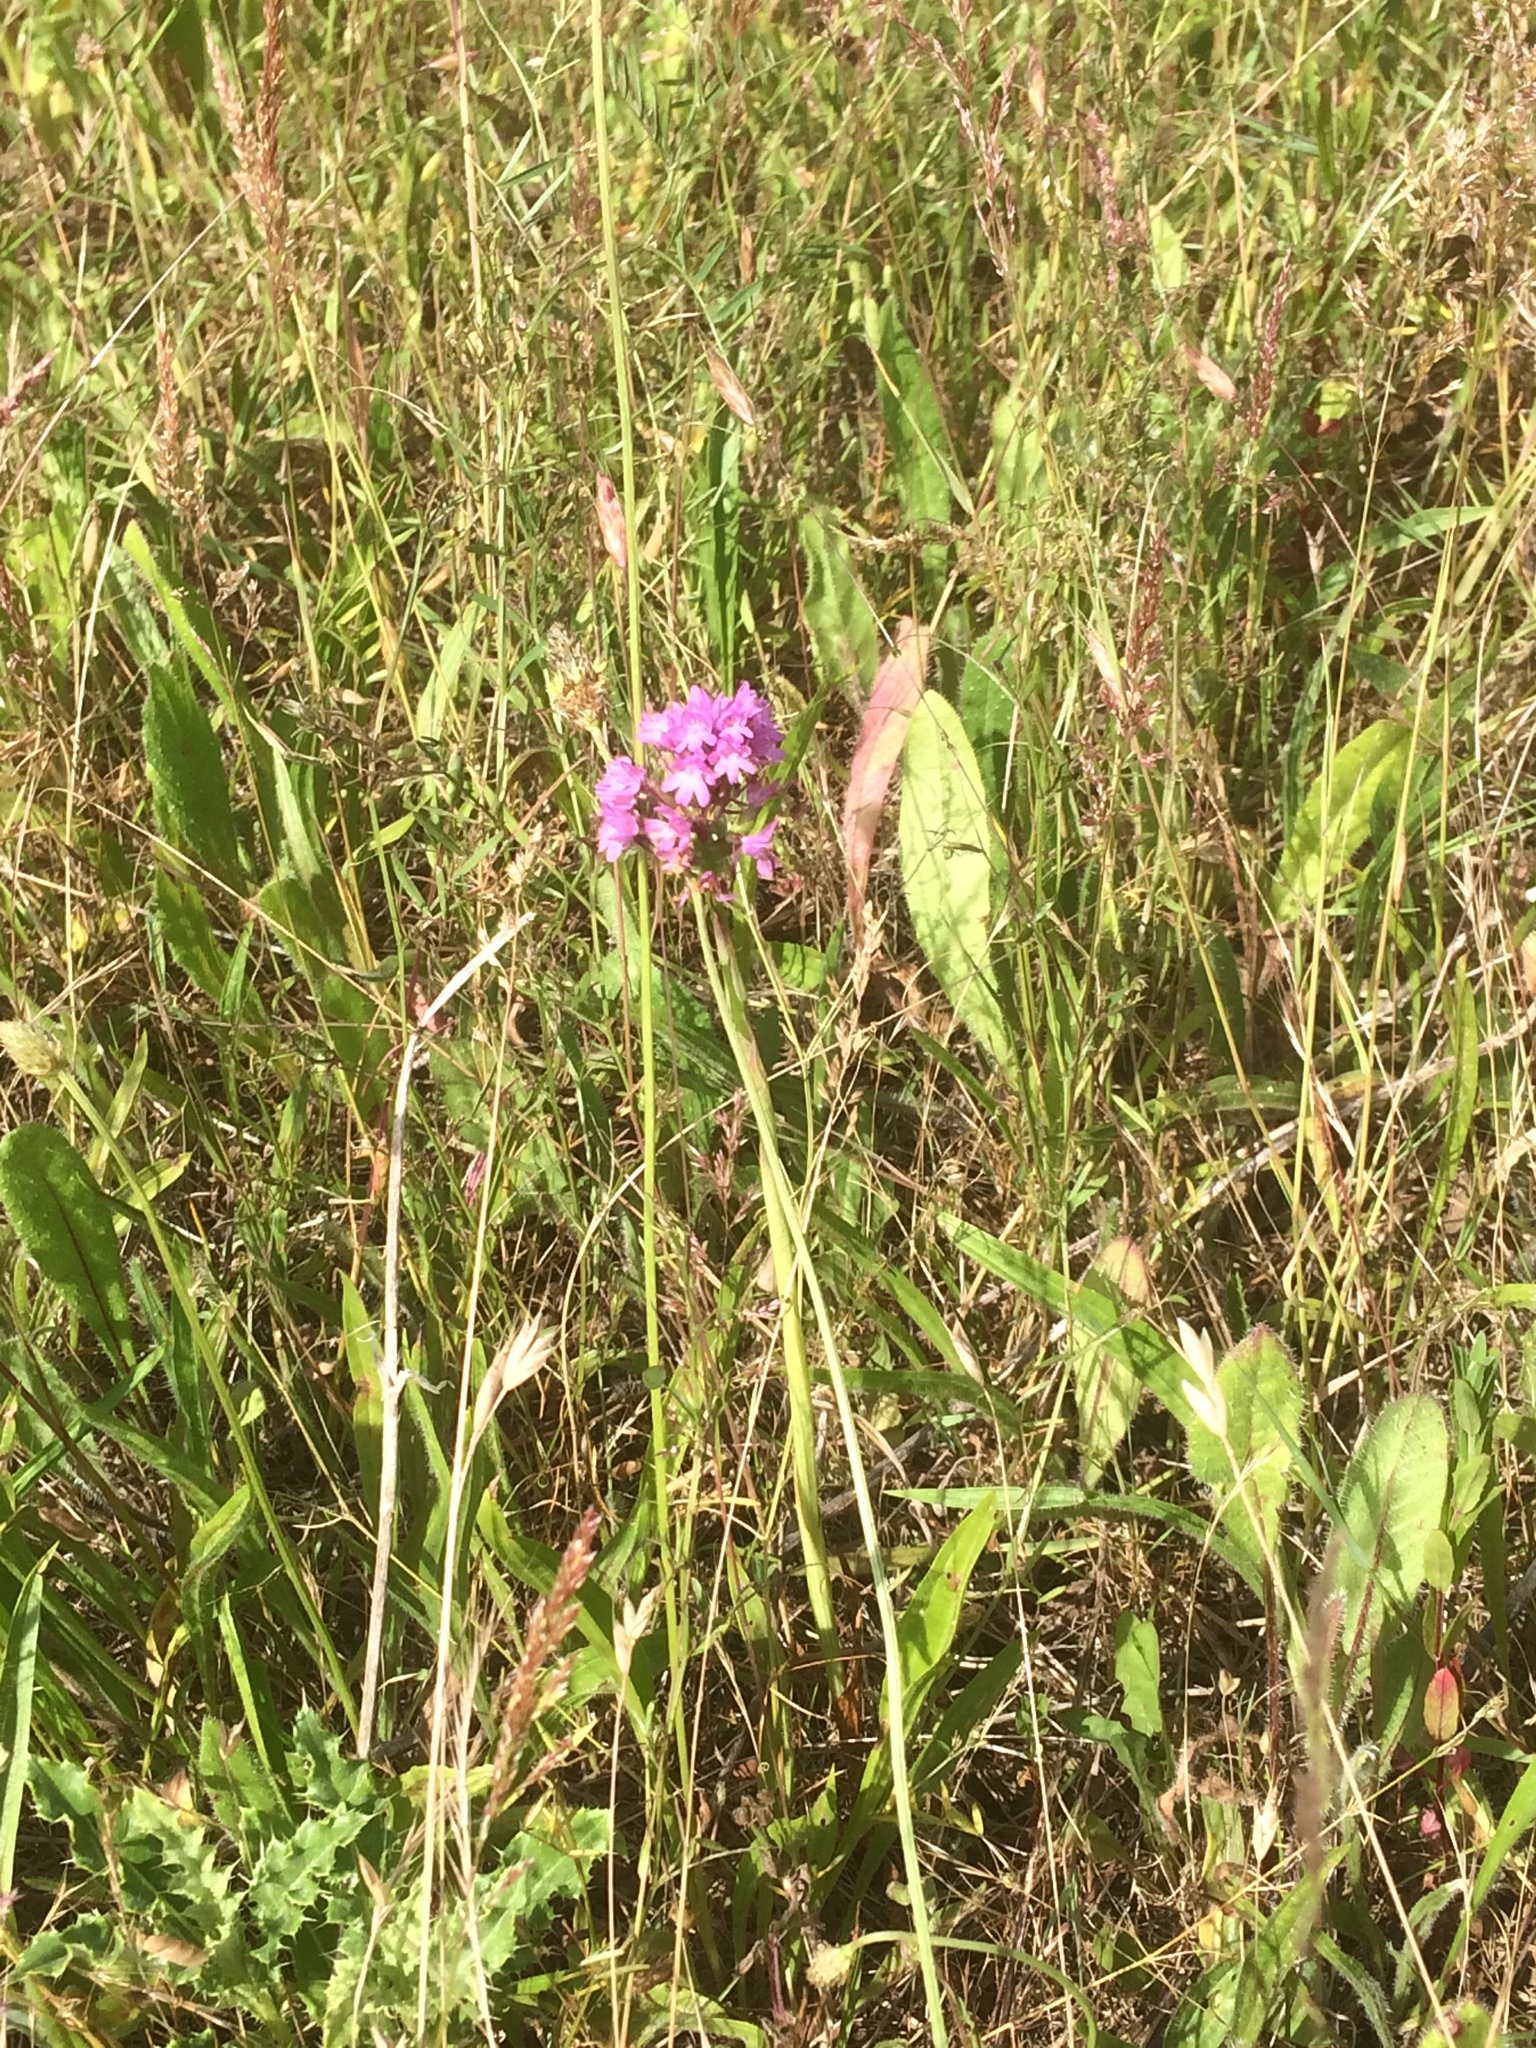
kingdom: Plantae
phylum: Tracheophyta
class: Liliopsida
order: Asparagales
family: Orchidaceae
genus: Anacamptis
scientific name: Anacamptis pyramidalis
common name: Pyramidal orchid
